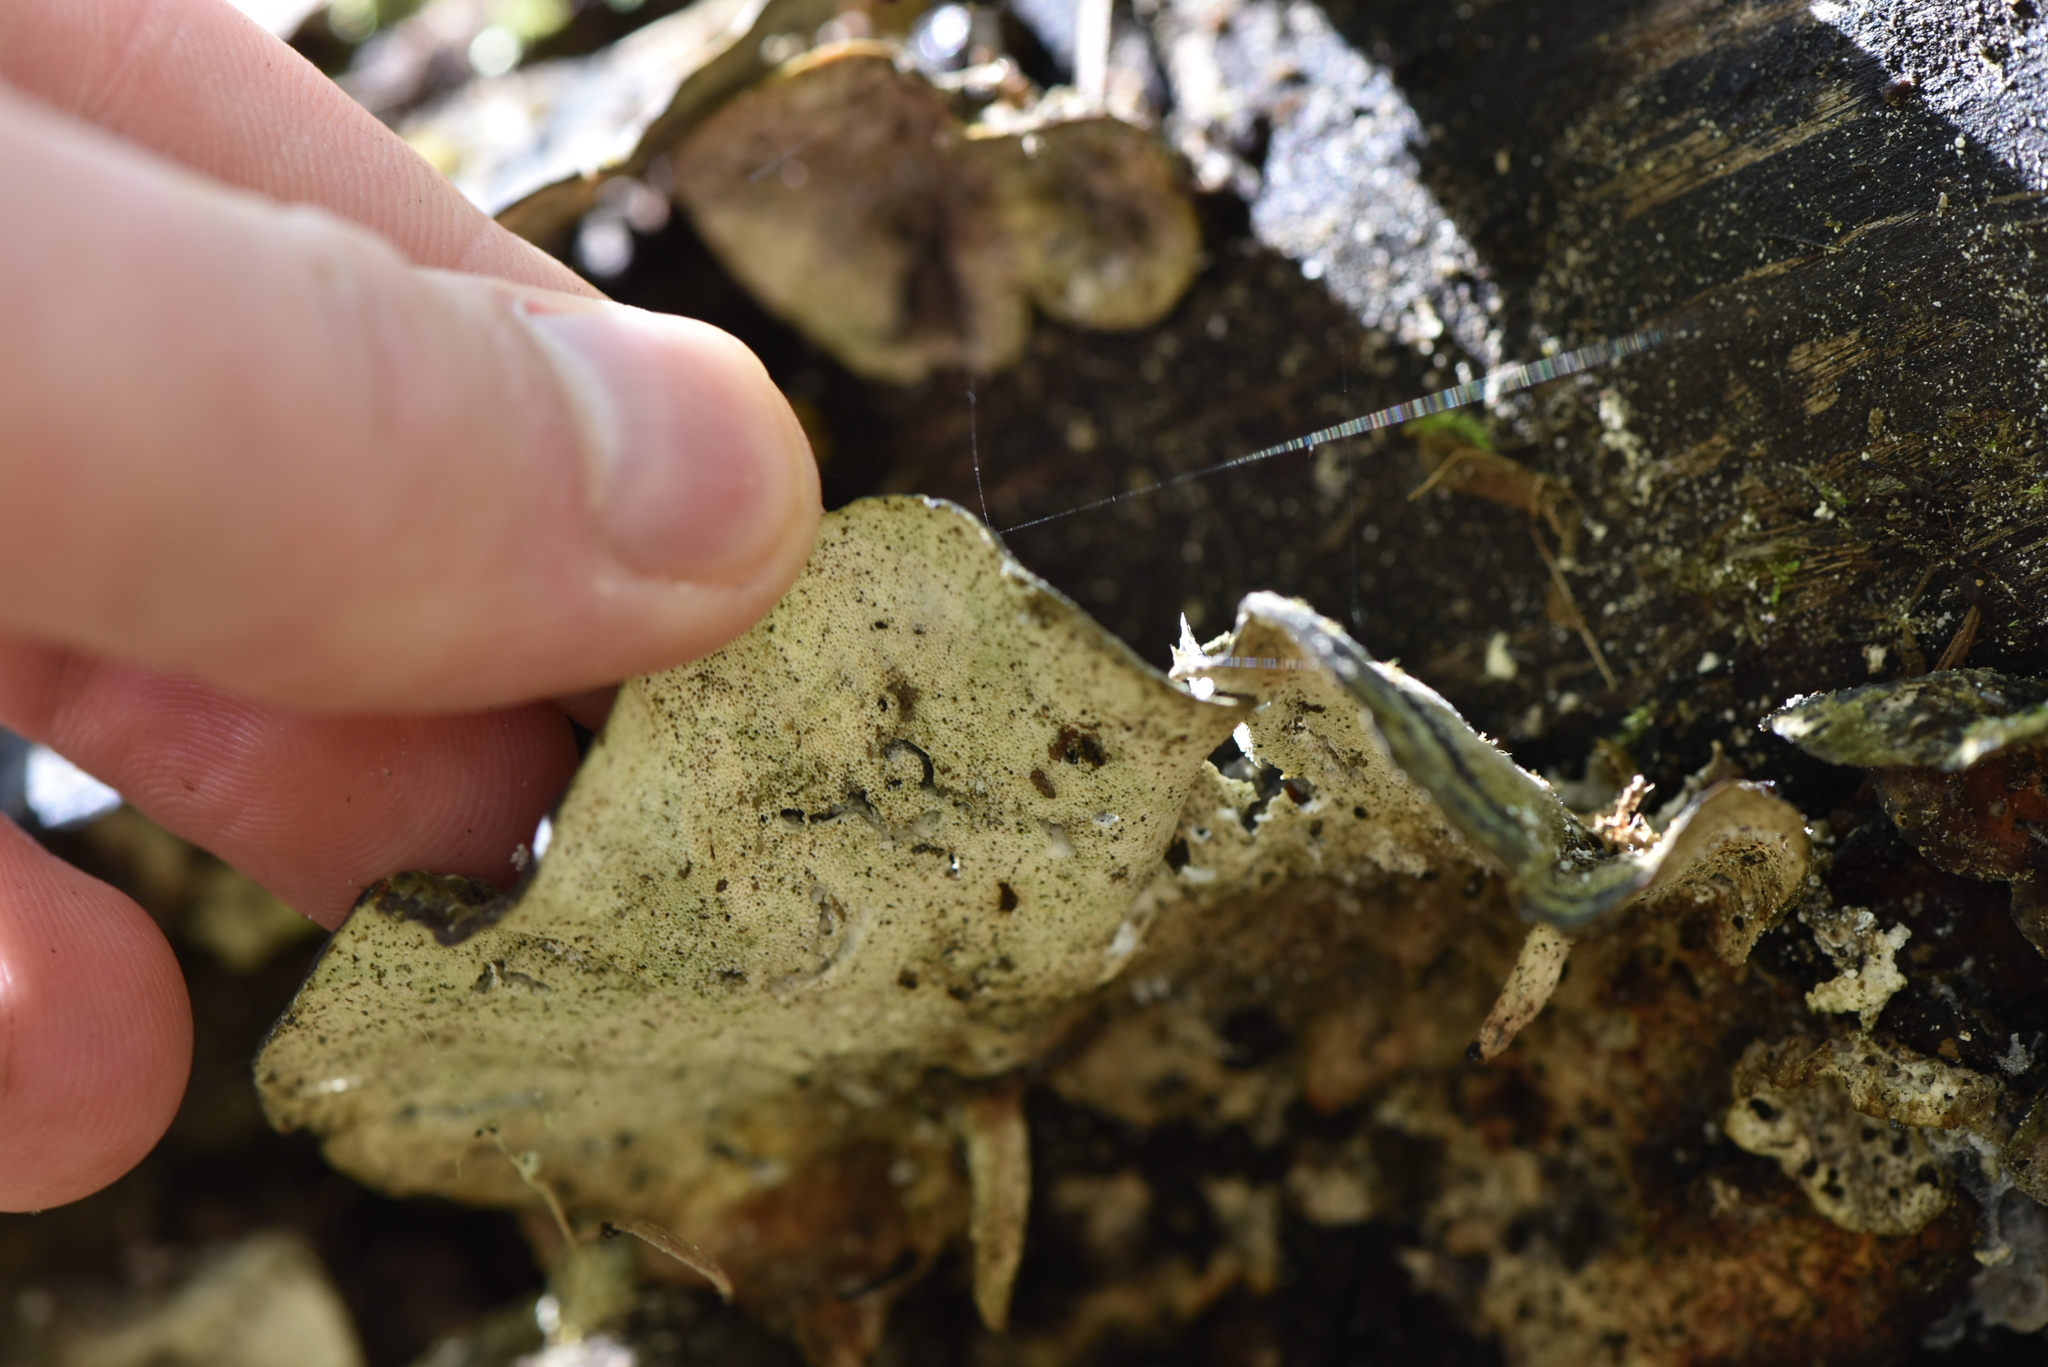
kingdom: Fungi
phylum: Basidiomycota
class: Agaricomycetes
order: Polyporales
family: Polyporaceae
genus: Trametes
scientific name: Trametes versicolor
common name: Turkeytail
